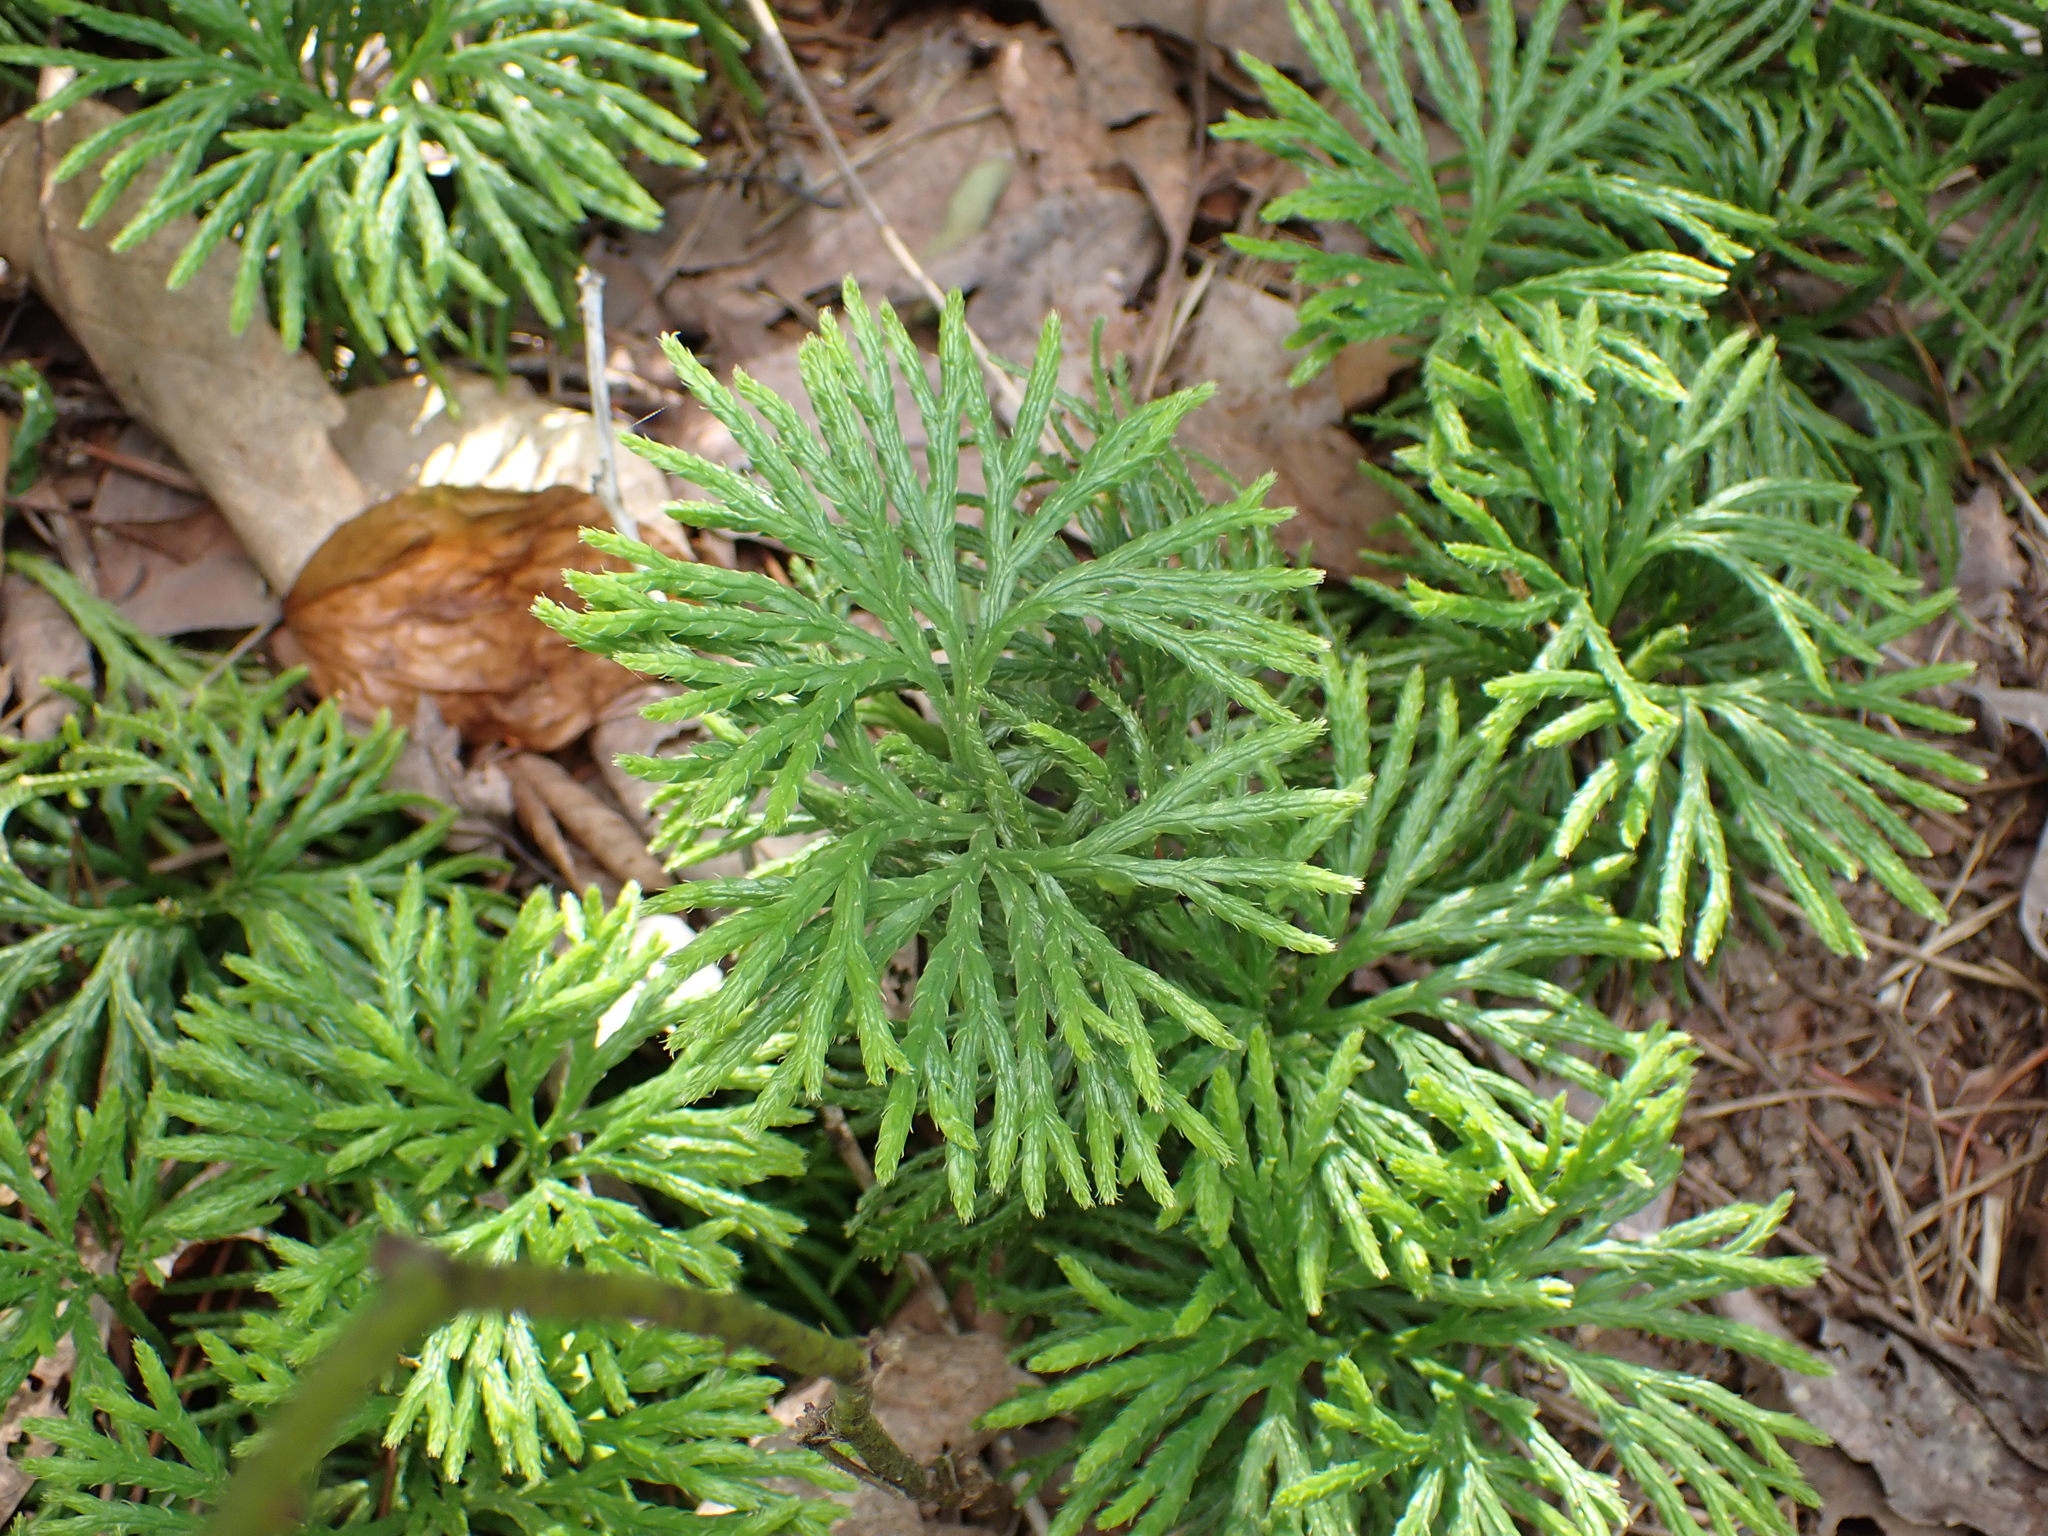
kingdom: Plantae
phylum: Tracheophyta
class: Lycopodiopsida
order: Lycopodiales
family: Lycopodiaceae
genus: Diphasiastrum
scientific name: Diphasiastrum digitatum
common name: Southern running-pine
